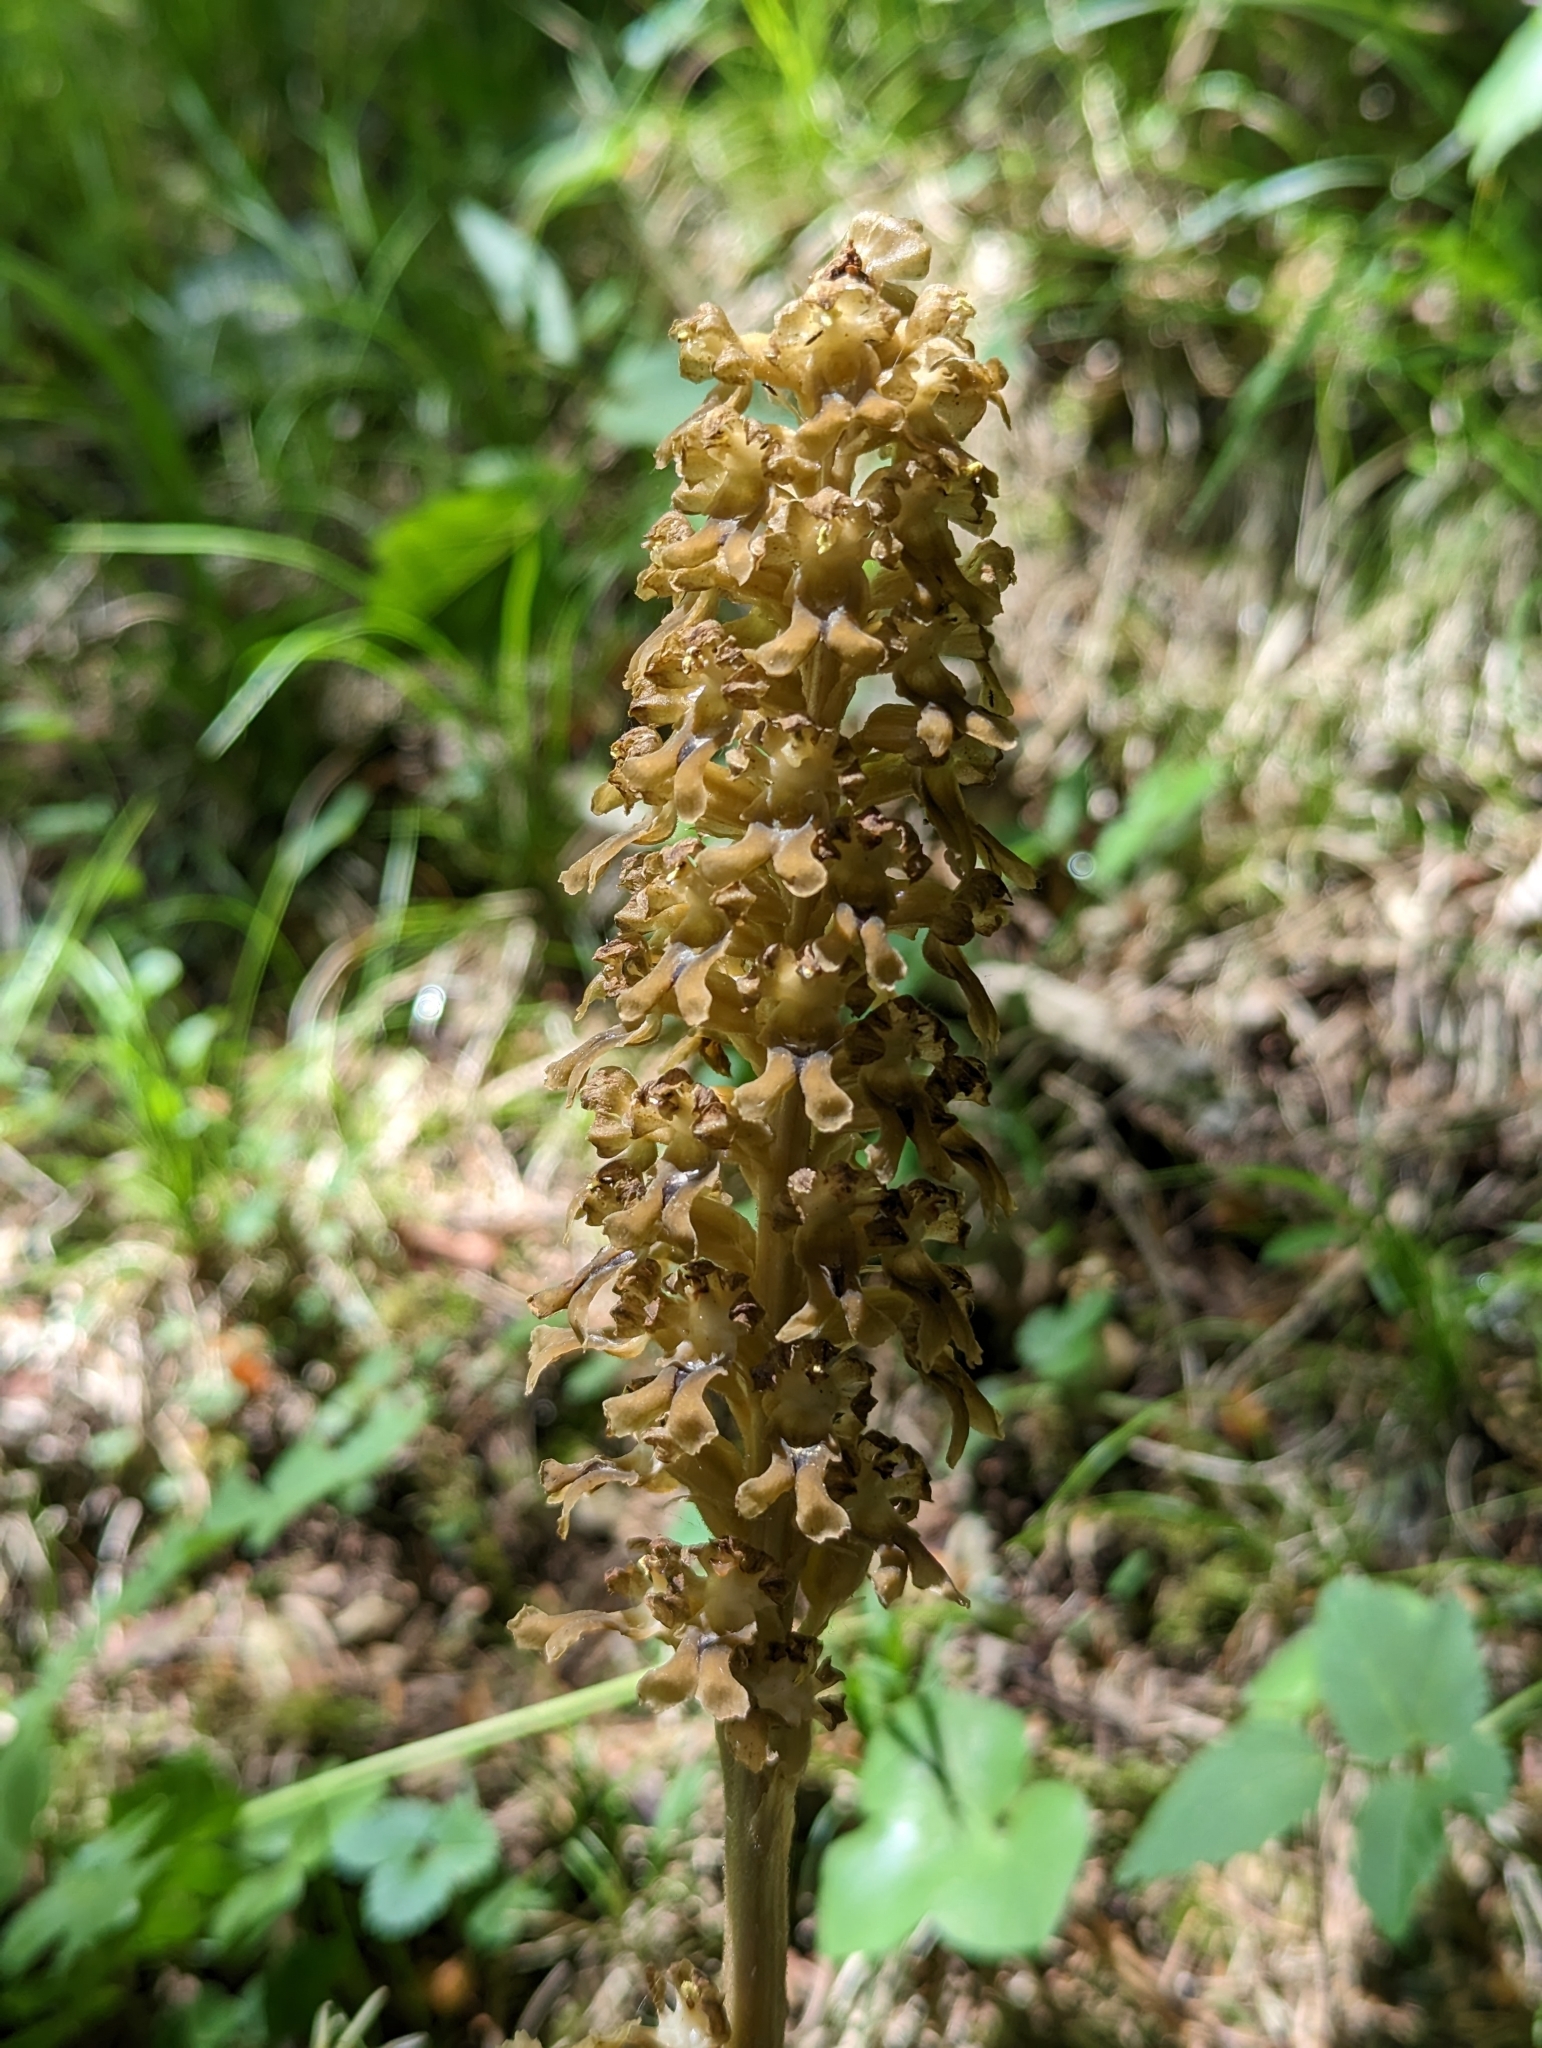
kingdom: Plantae
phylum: Tracheophyta
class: Liliopsida
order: Asparagales
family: Orchidaceae
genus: Neottia
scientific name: Neottia nidus-avis
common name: Bird's-nest orchid
